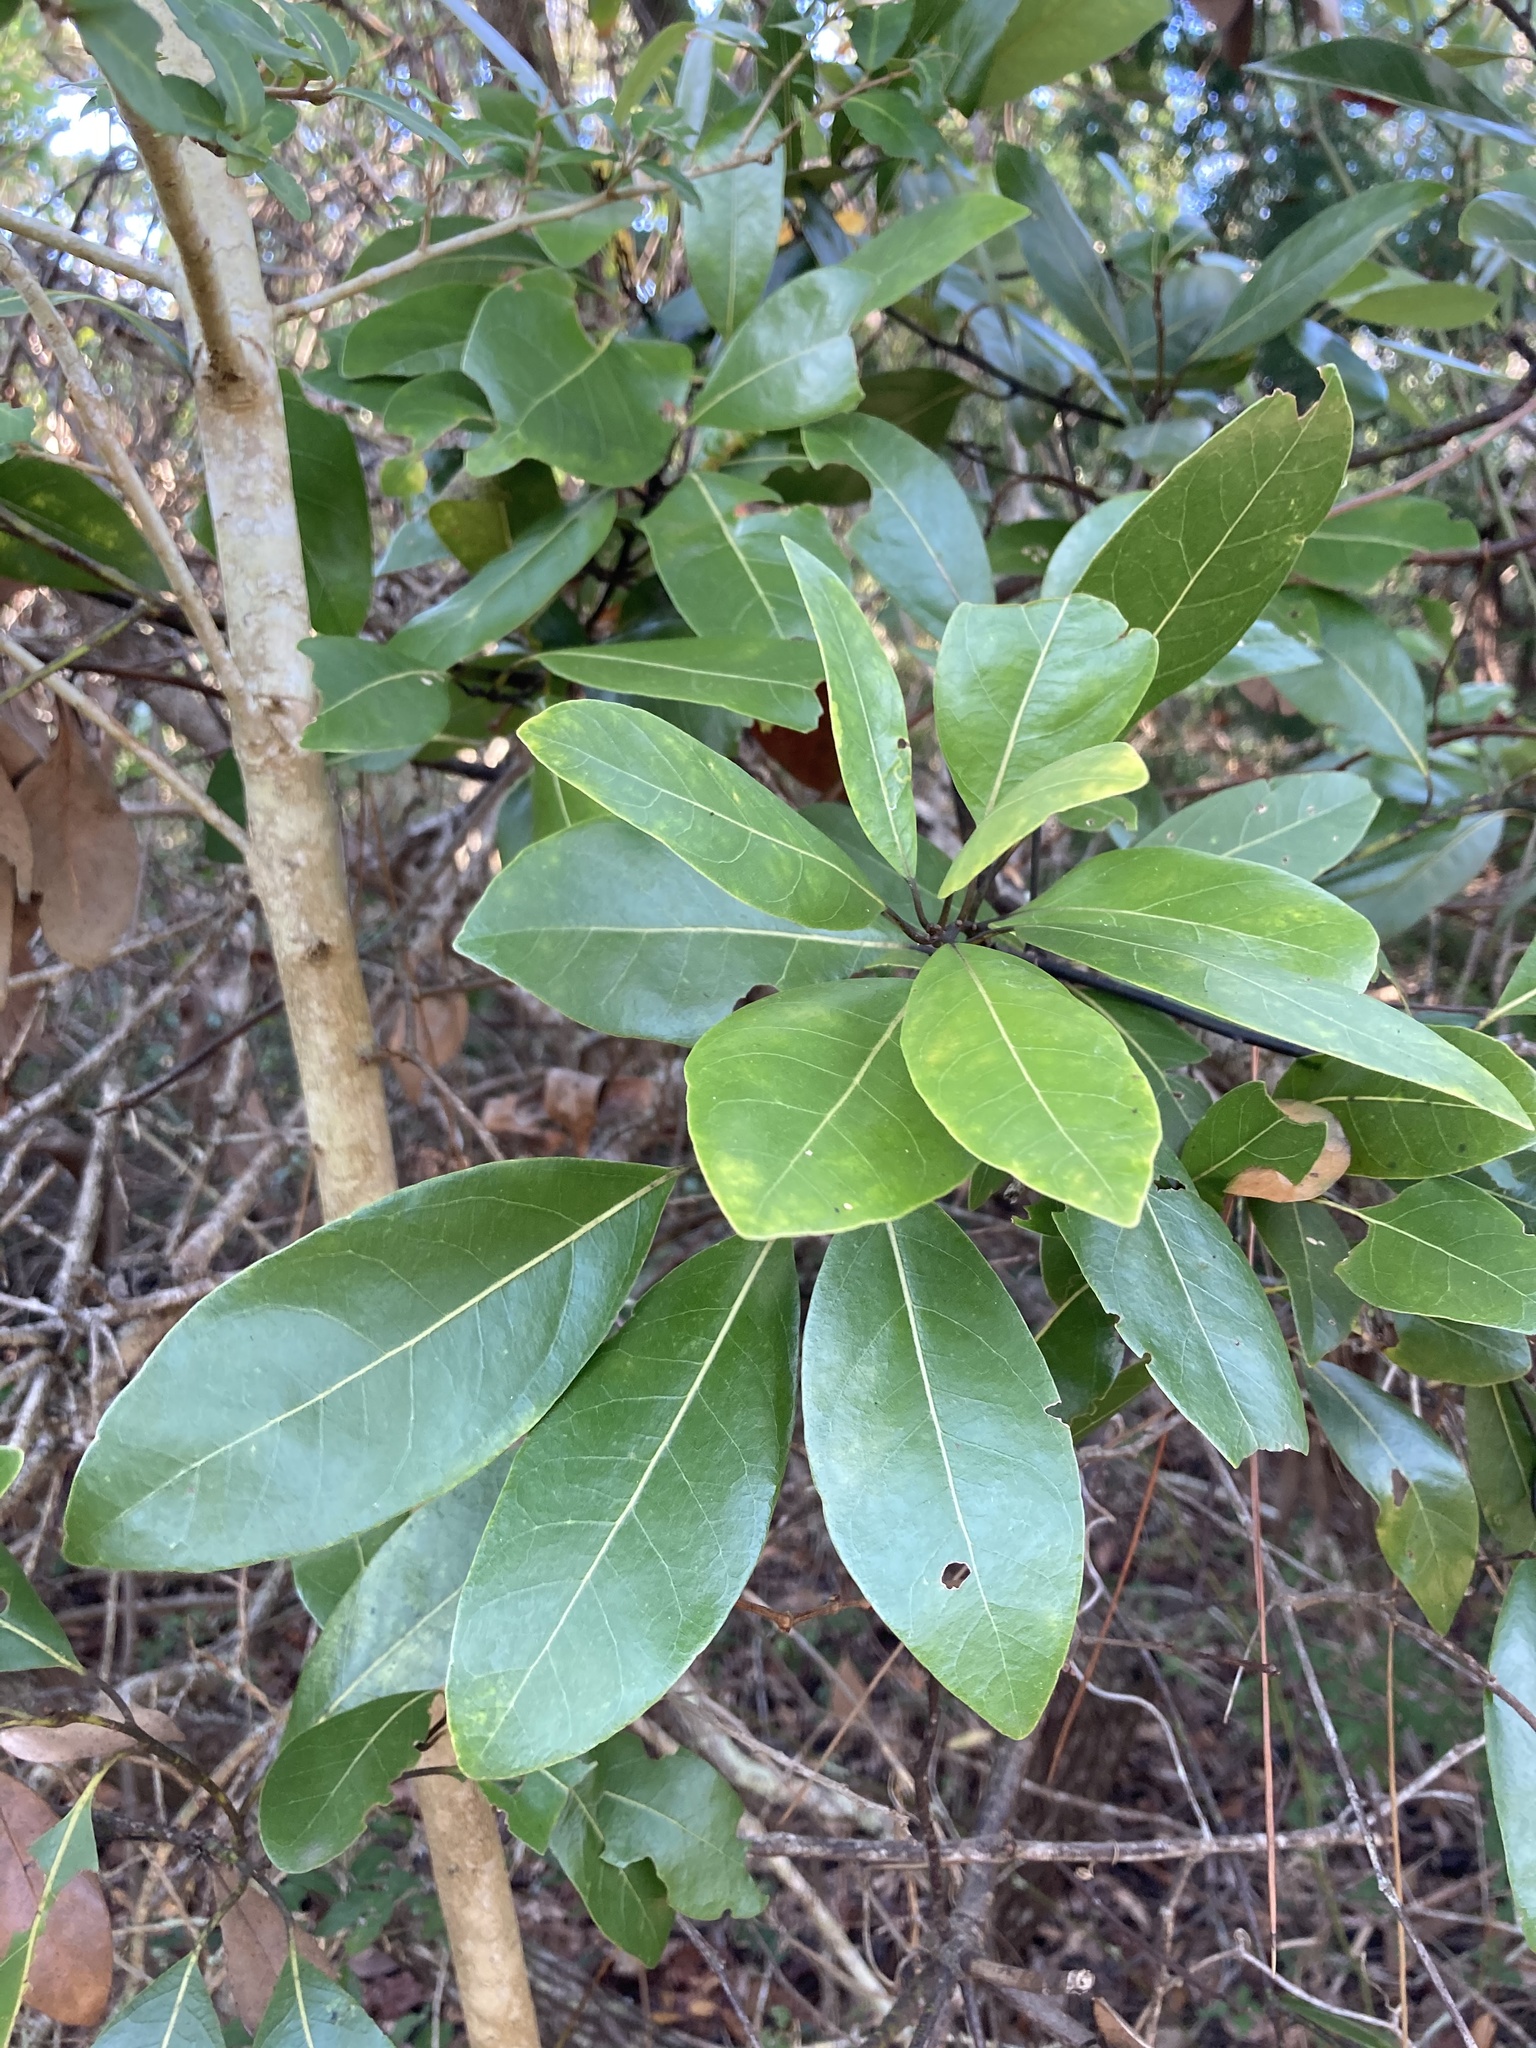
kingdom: Plantae
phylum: Tracheophyta
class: Magnoliopsida
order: Laurales
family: Lauraceae
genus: Persea
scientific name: Persea borbonia
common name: Redbay
